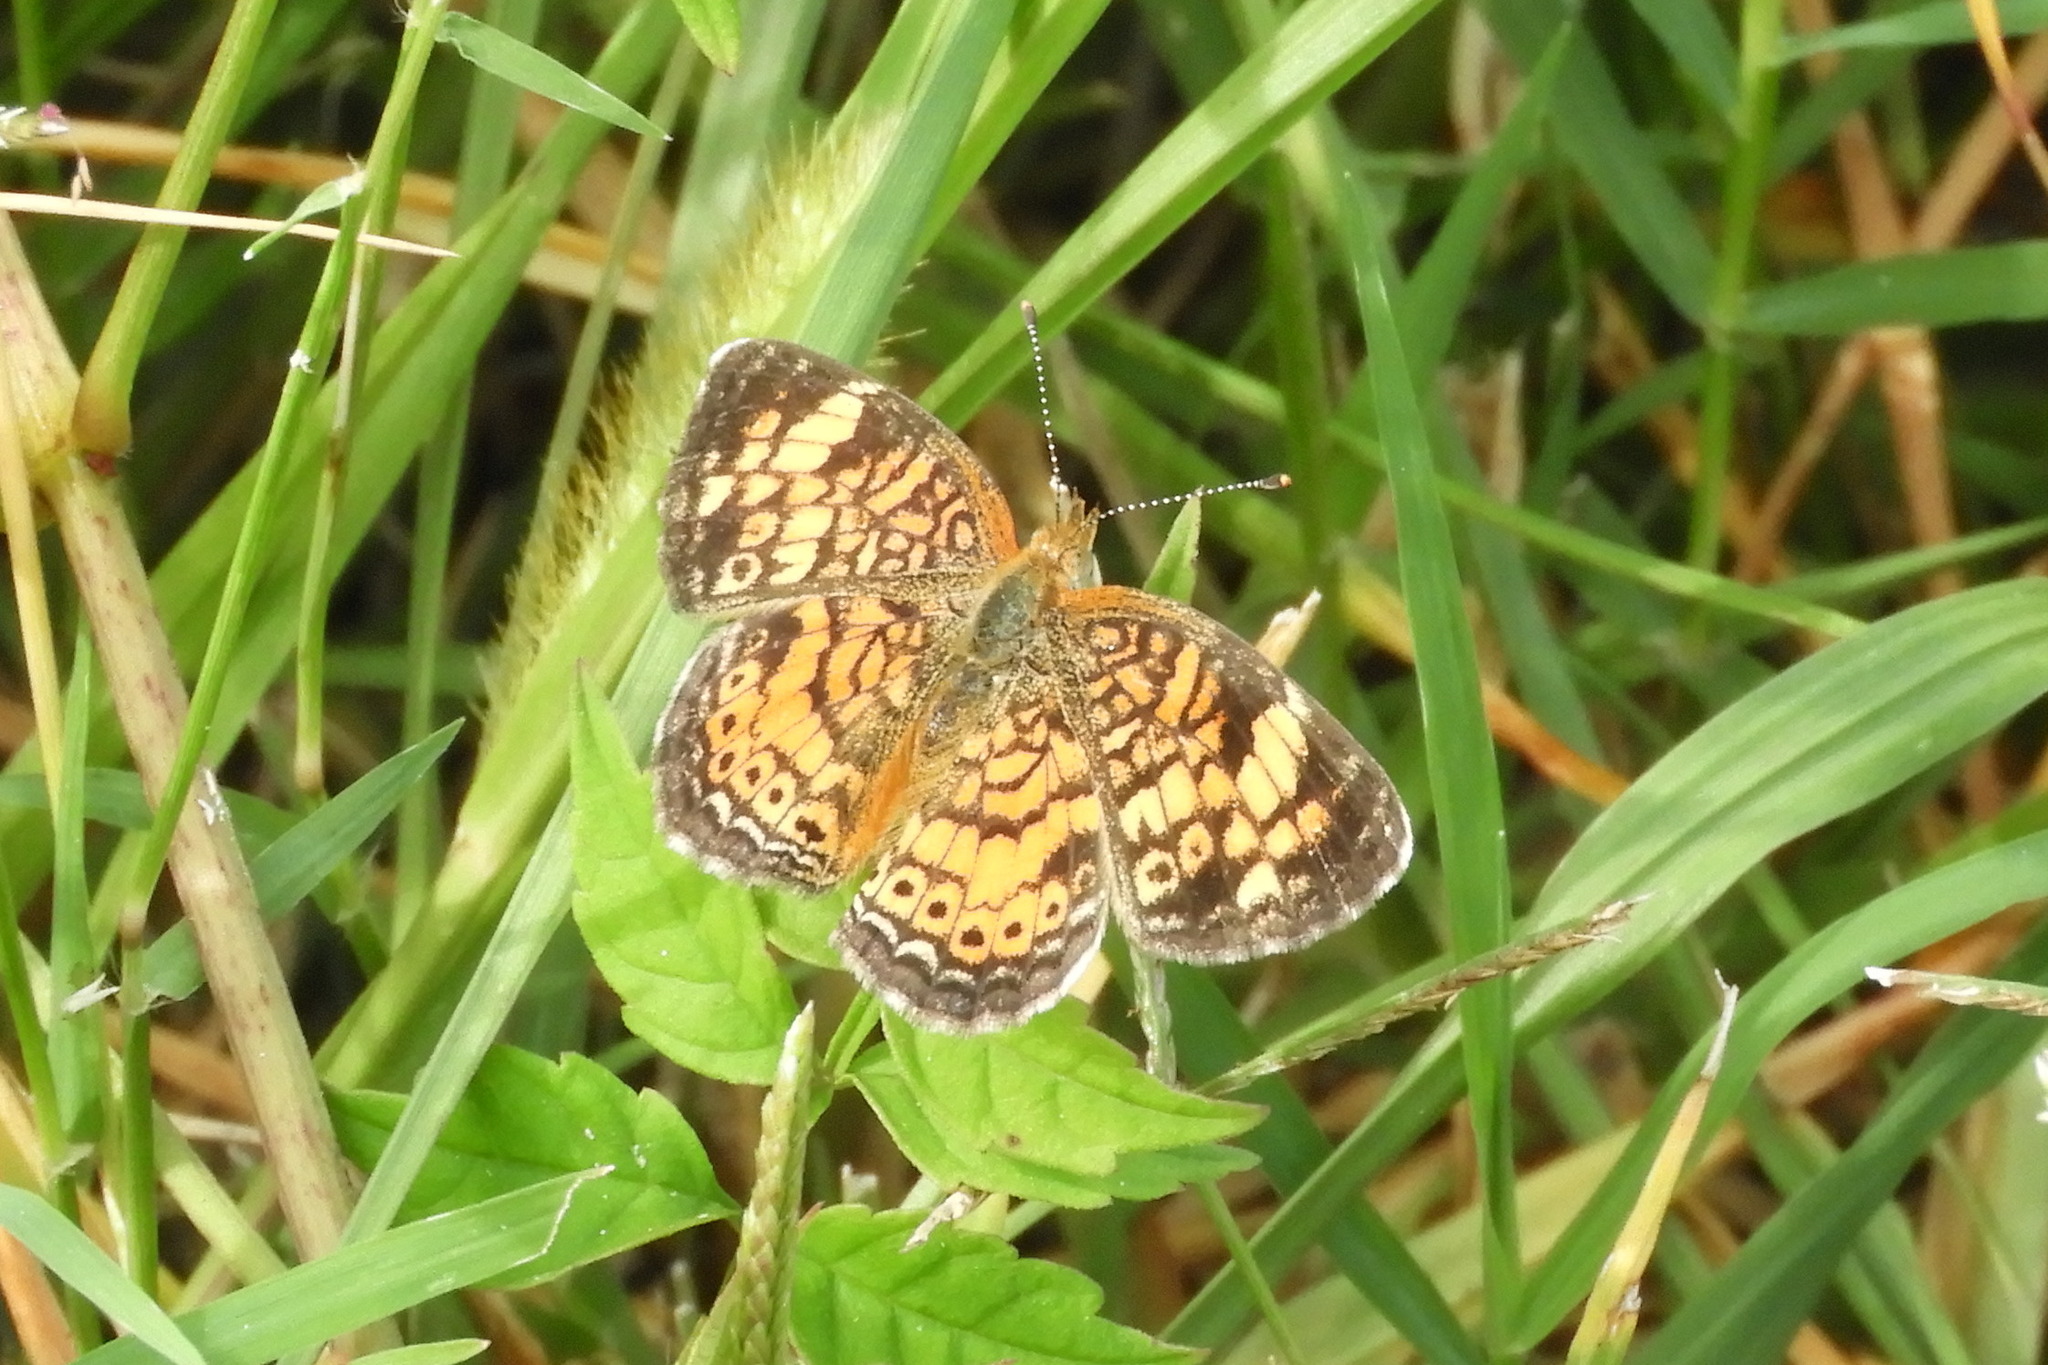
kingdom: Animalia
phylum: Arthropoda
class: Insecta
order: Lepidoptera
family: Nymphalidae
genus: Phyciodes
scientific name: Phyciodes tharos
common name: Pearl crescent
